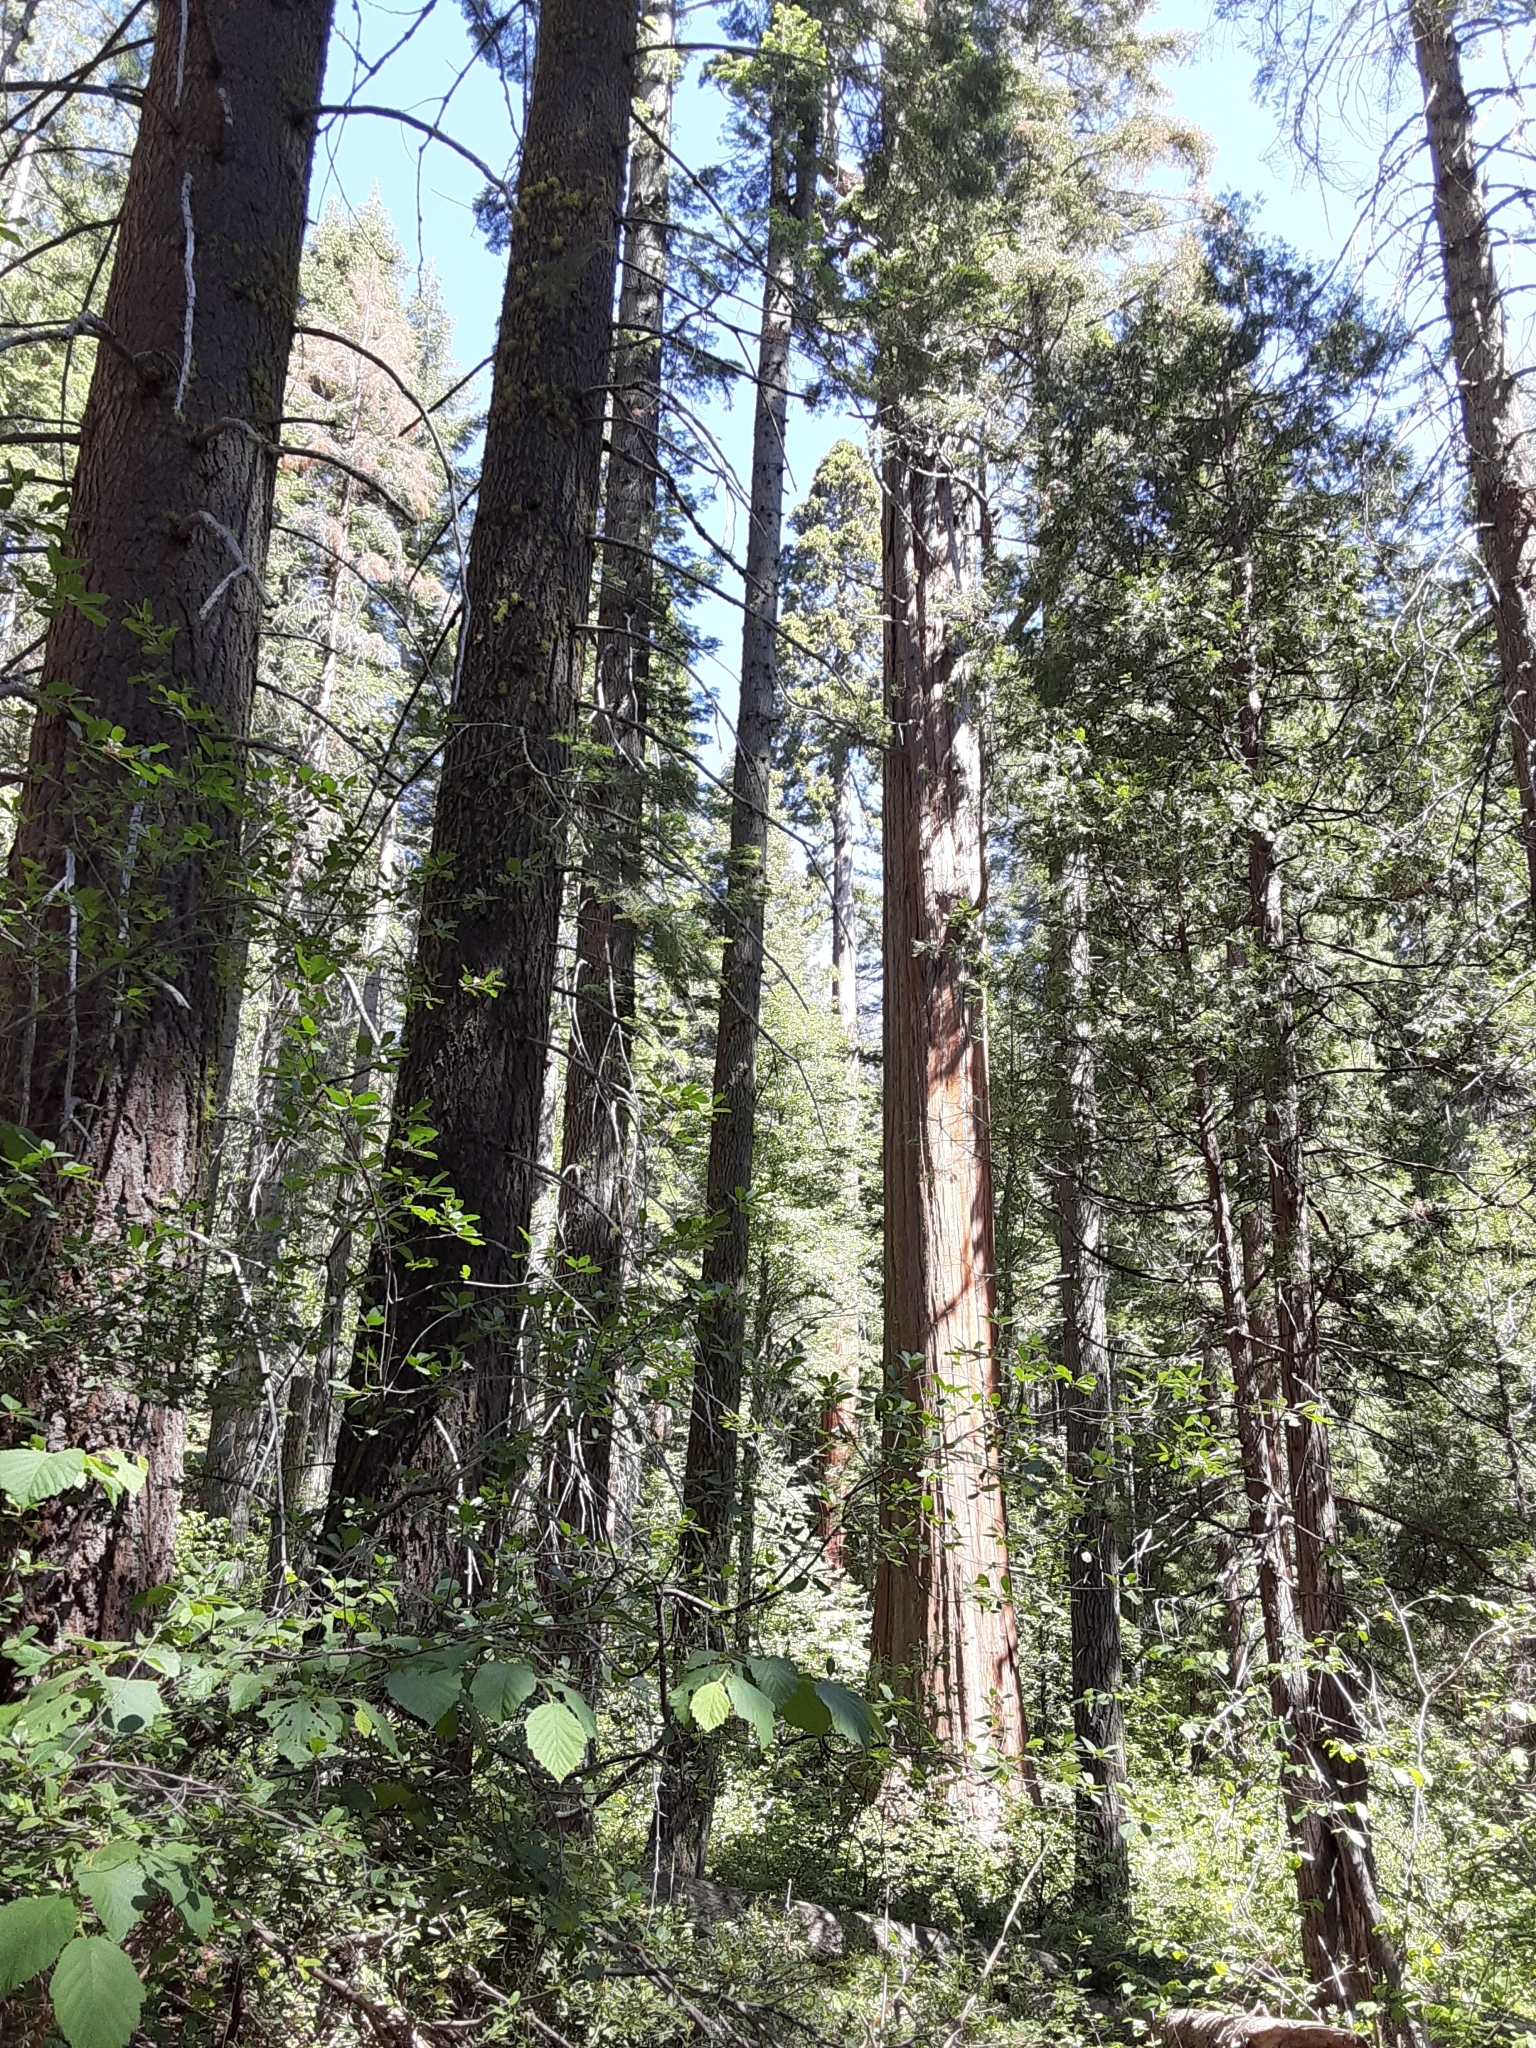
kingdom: Plantae
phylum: Tracheophyta
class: Pinopsida
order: Pinales
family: Cupressaceae
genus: Sequoiadendron
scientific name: Sequoiadendron giganteum
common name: Wellingtonia
